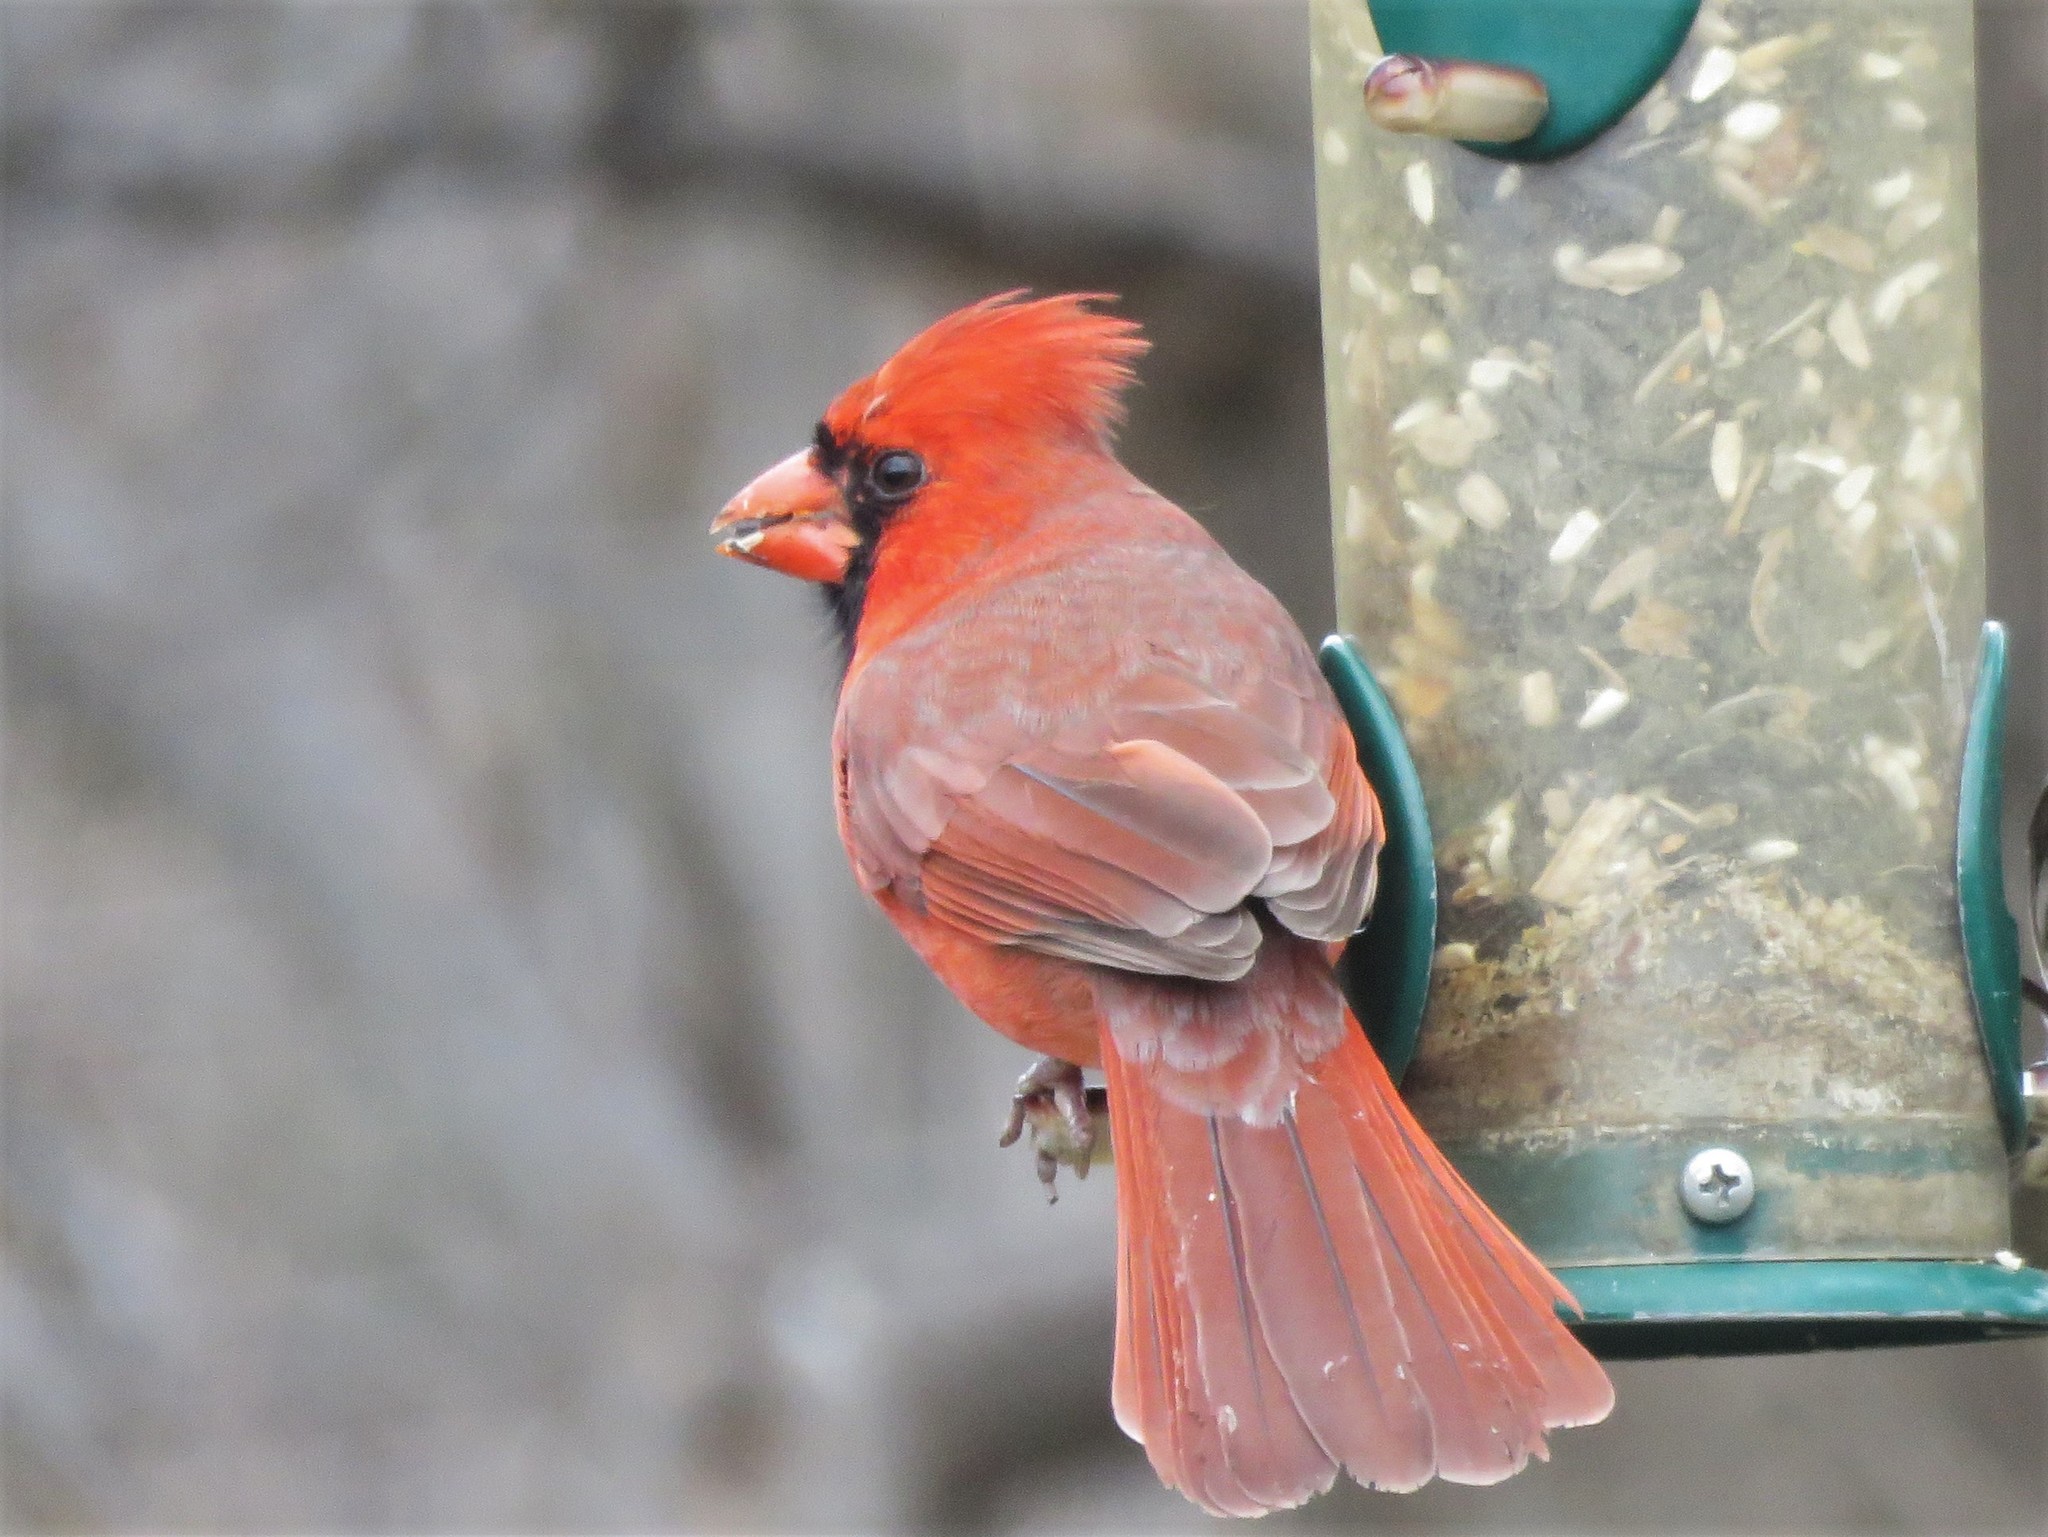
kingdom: Animalia
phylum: Chordata
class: Aves
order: Passeriformes
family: Cardinalidae
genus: Cardinalis
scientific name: Cardinalis cardinalis
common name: Northern cardinal
